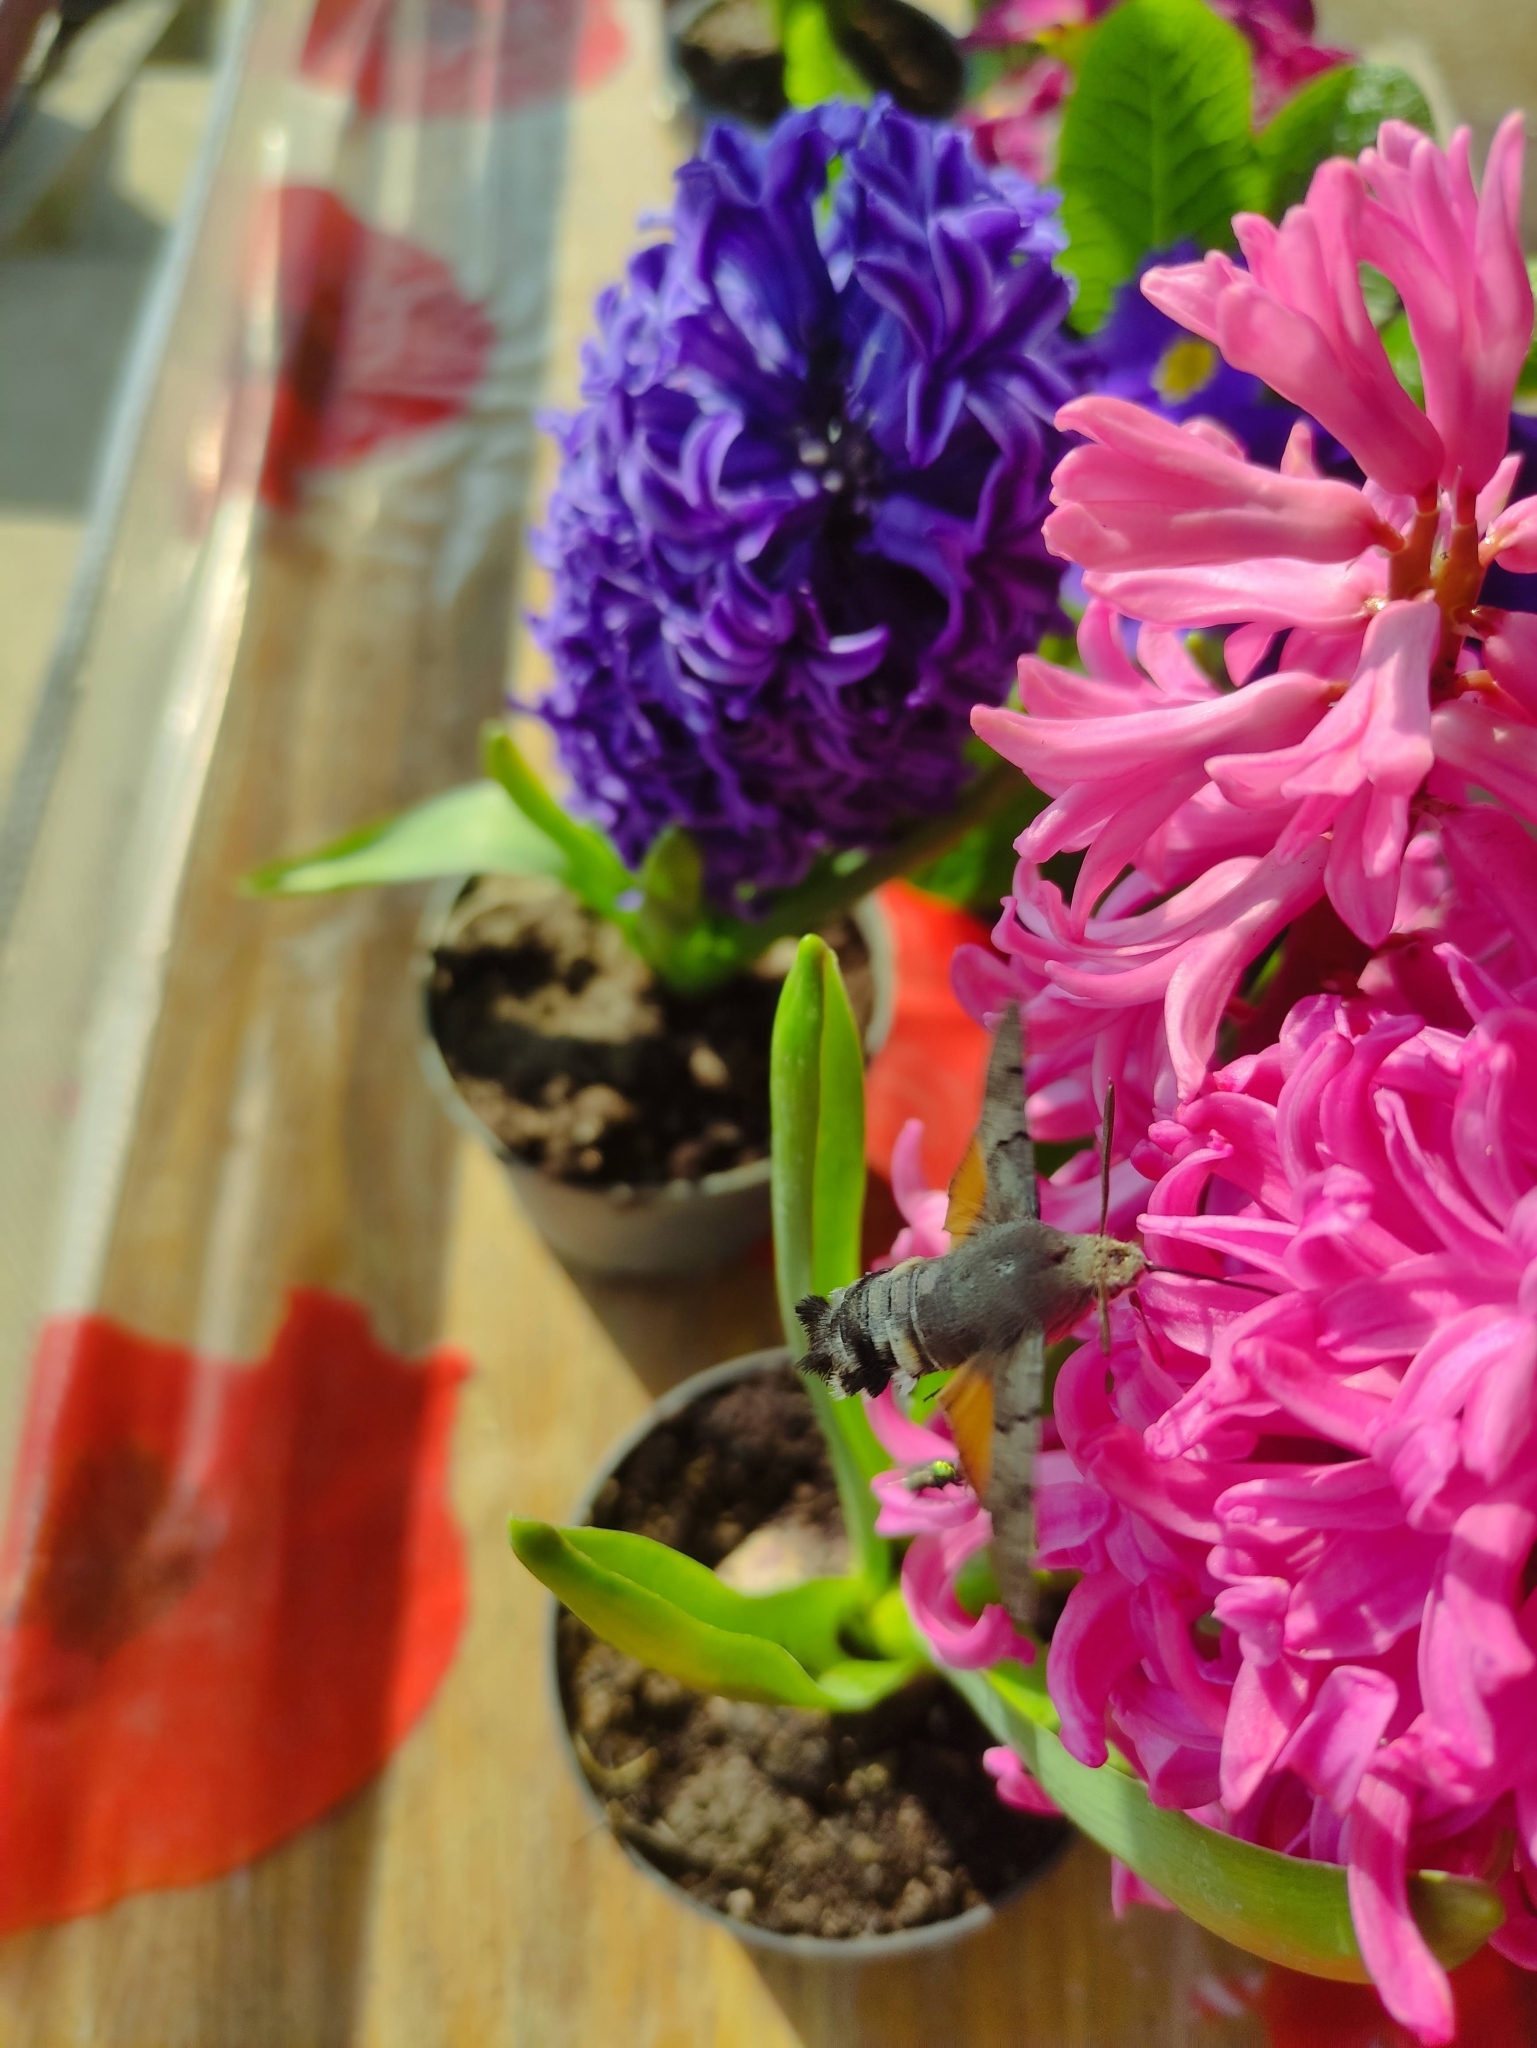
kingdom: Animalia
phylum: Arthropoda
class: Insecta
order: Lepidoptera
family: Sphingidae
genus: Macroglossum
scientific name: Macroglossum stellatarum
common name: Humming-bird hawk-moth
